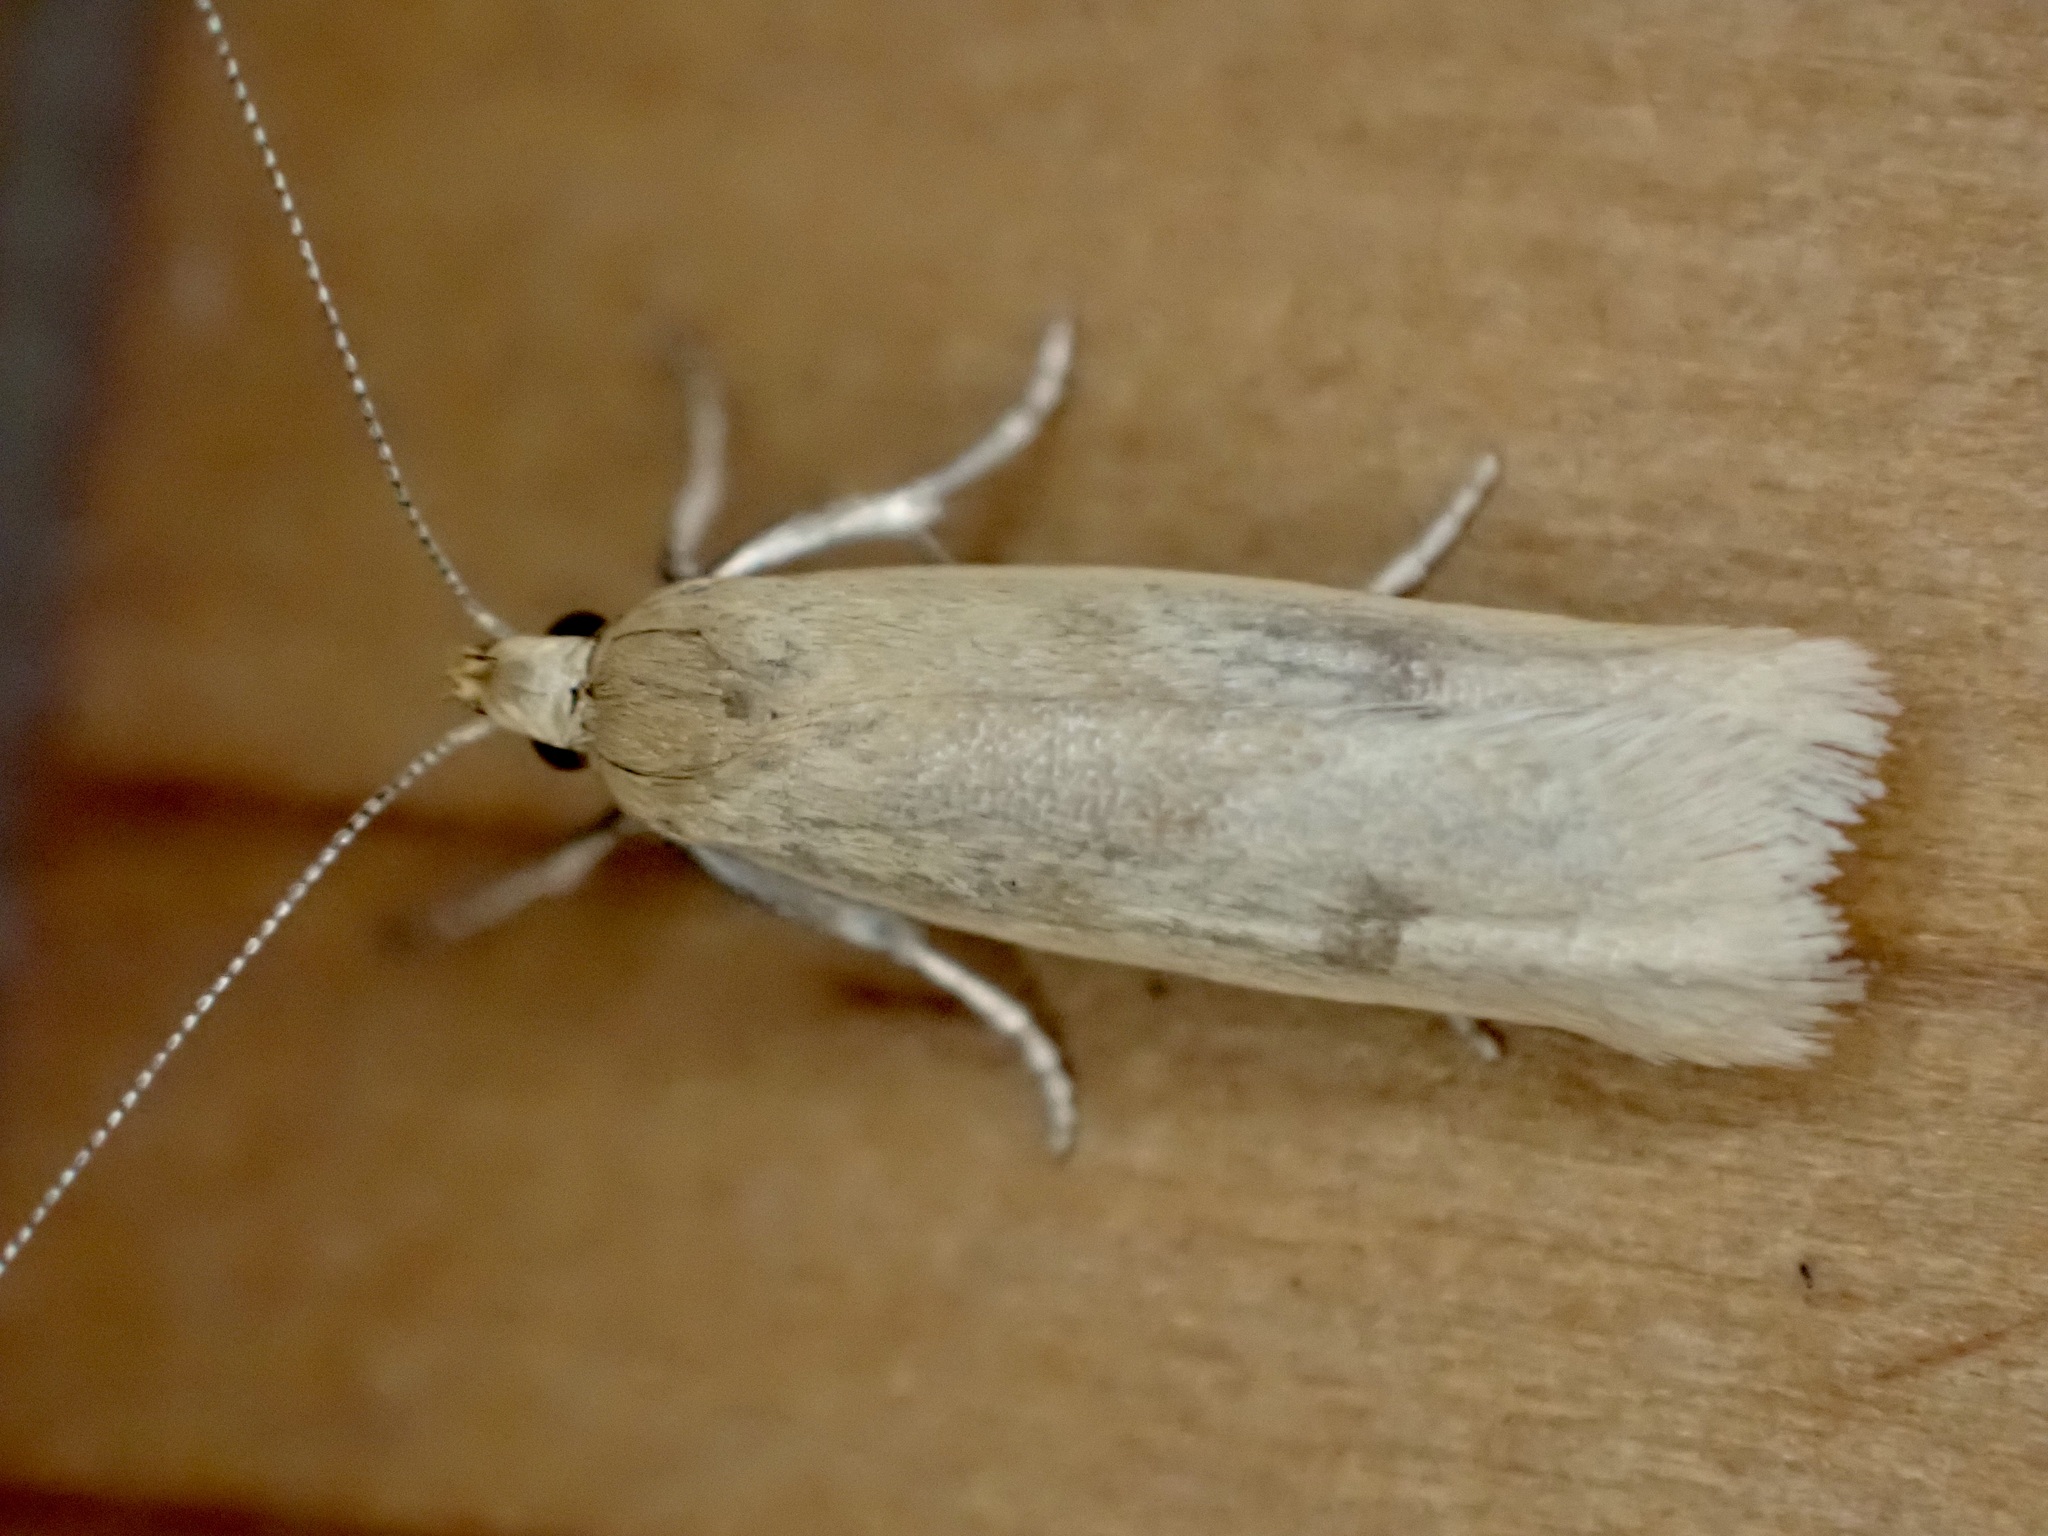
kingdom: Animalia
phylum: Arthropoda
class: Insecta
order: Lepidoptera
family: Oecophoridae
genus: Gymnobathra
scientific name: Gymnobathra parca
